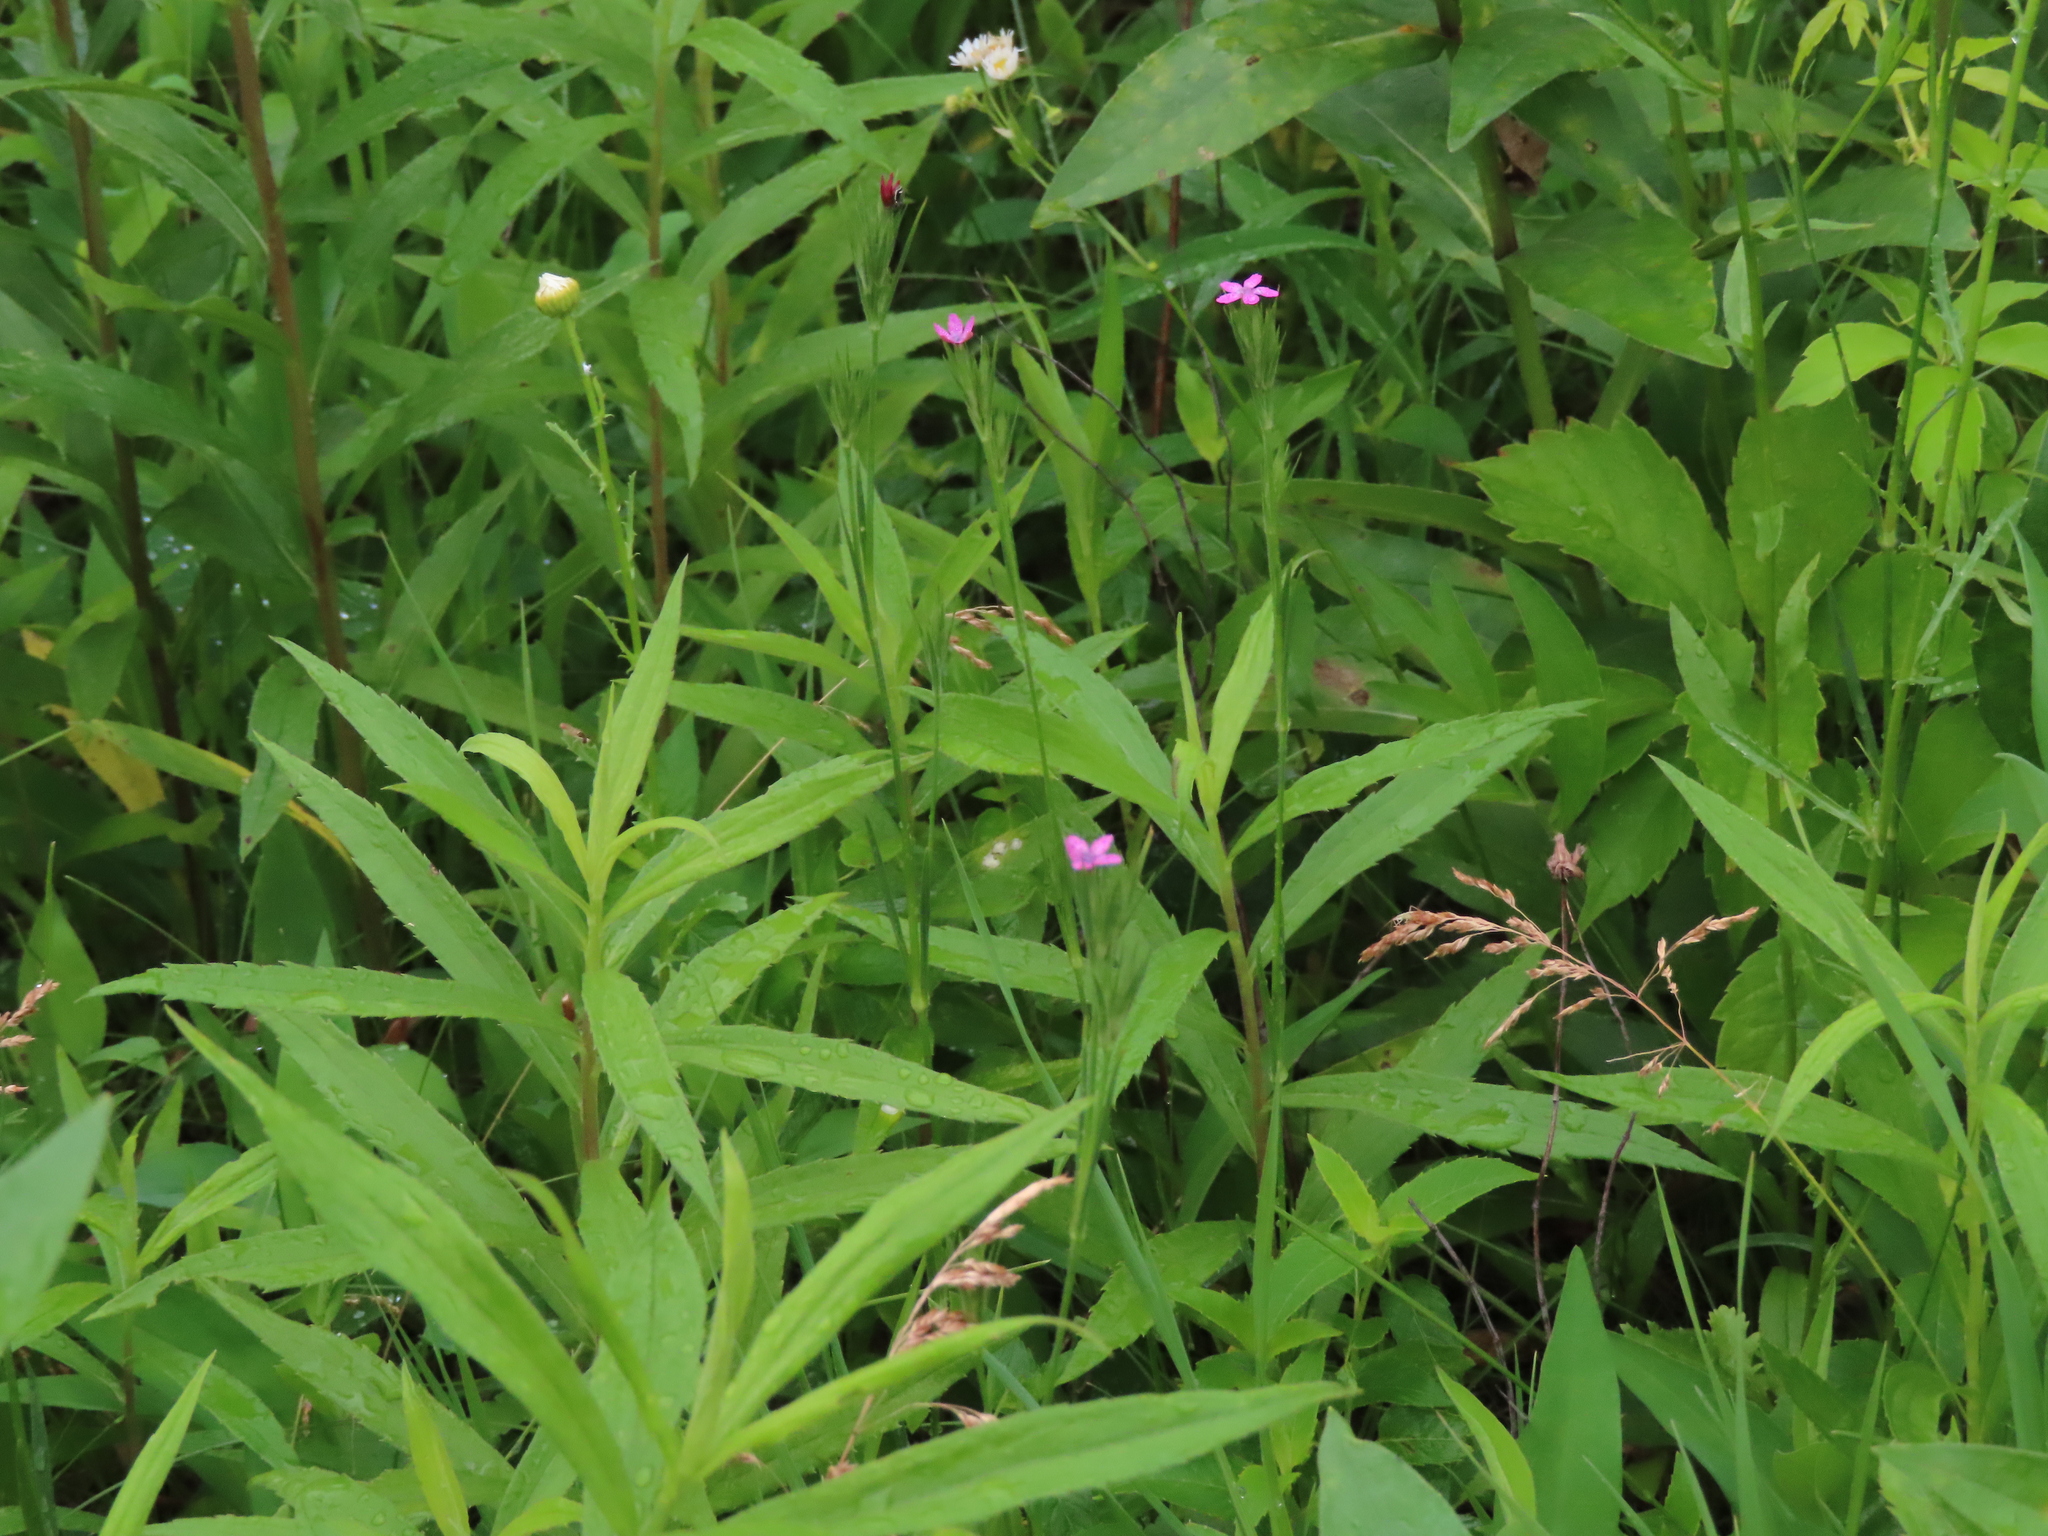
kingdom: Plantae
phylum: Tracheophyta
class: Magnoliopsida
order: Caryophyllales
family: Caryophyllaceae
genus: Dianthus
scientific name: Dianthus armeria
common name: Deptford pink
